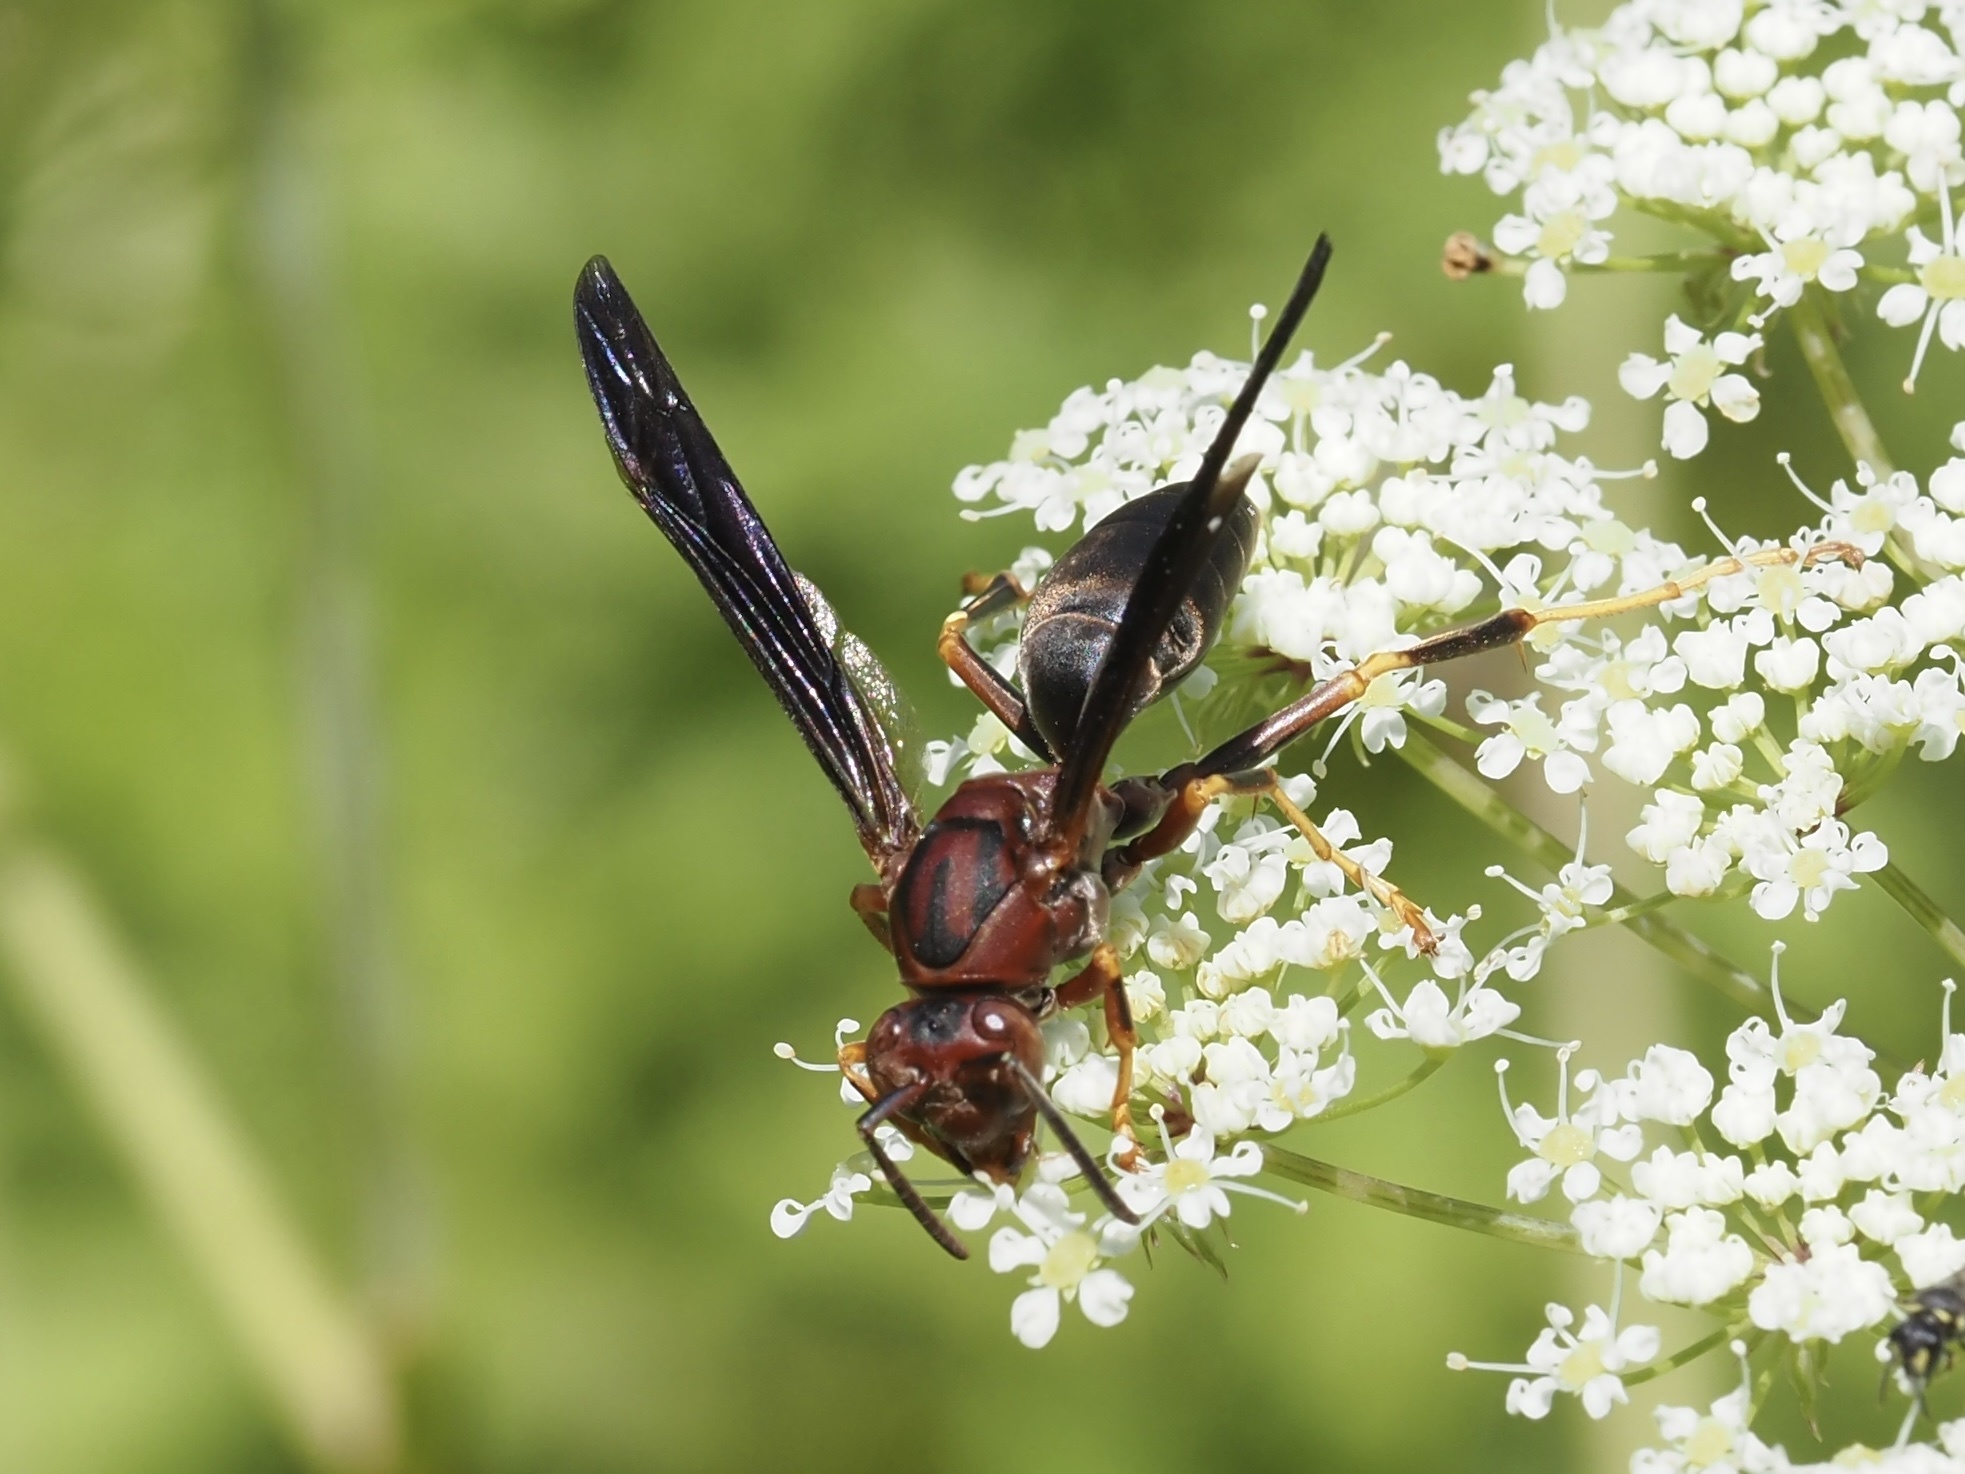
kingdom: Animalia
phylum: Arthropoda
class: Insecta
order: Hymenoptera
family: Eumenidae
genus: Polistes
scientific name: Polistes metricus
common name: Metric paper wasp
